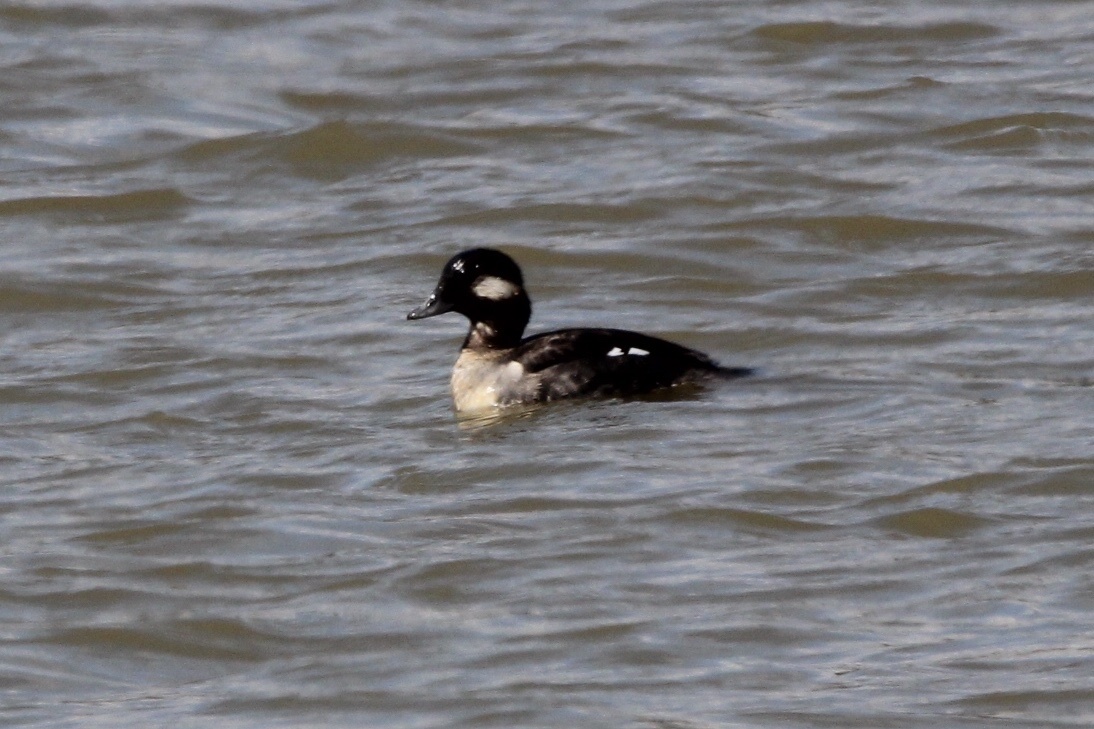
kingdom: Animalia
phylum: Chordata
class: Aves
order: Anseriformes
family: Anatidae
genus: Bucephala
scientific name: Bucephala albeola
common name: Bufflehead
